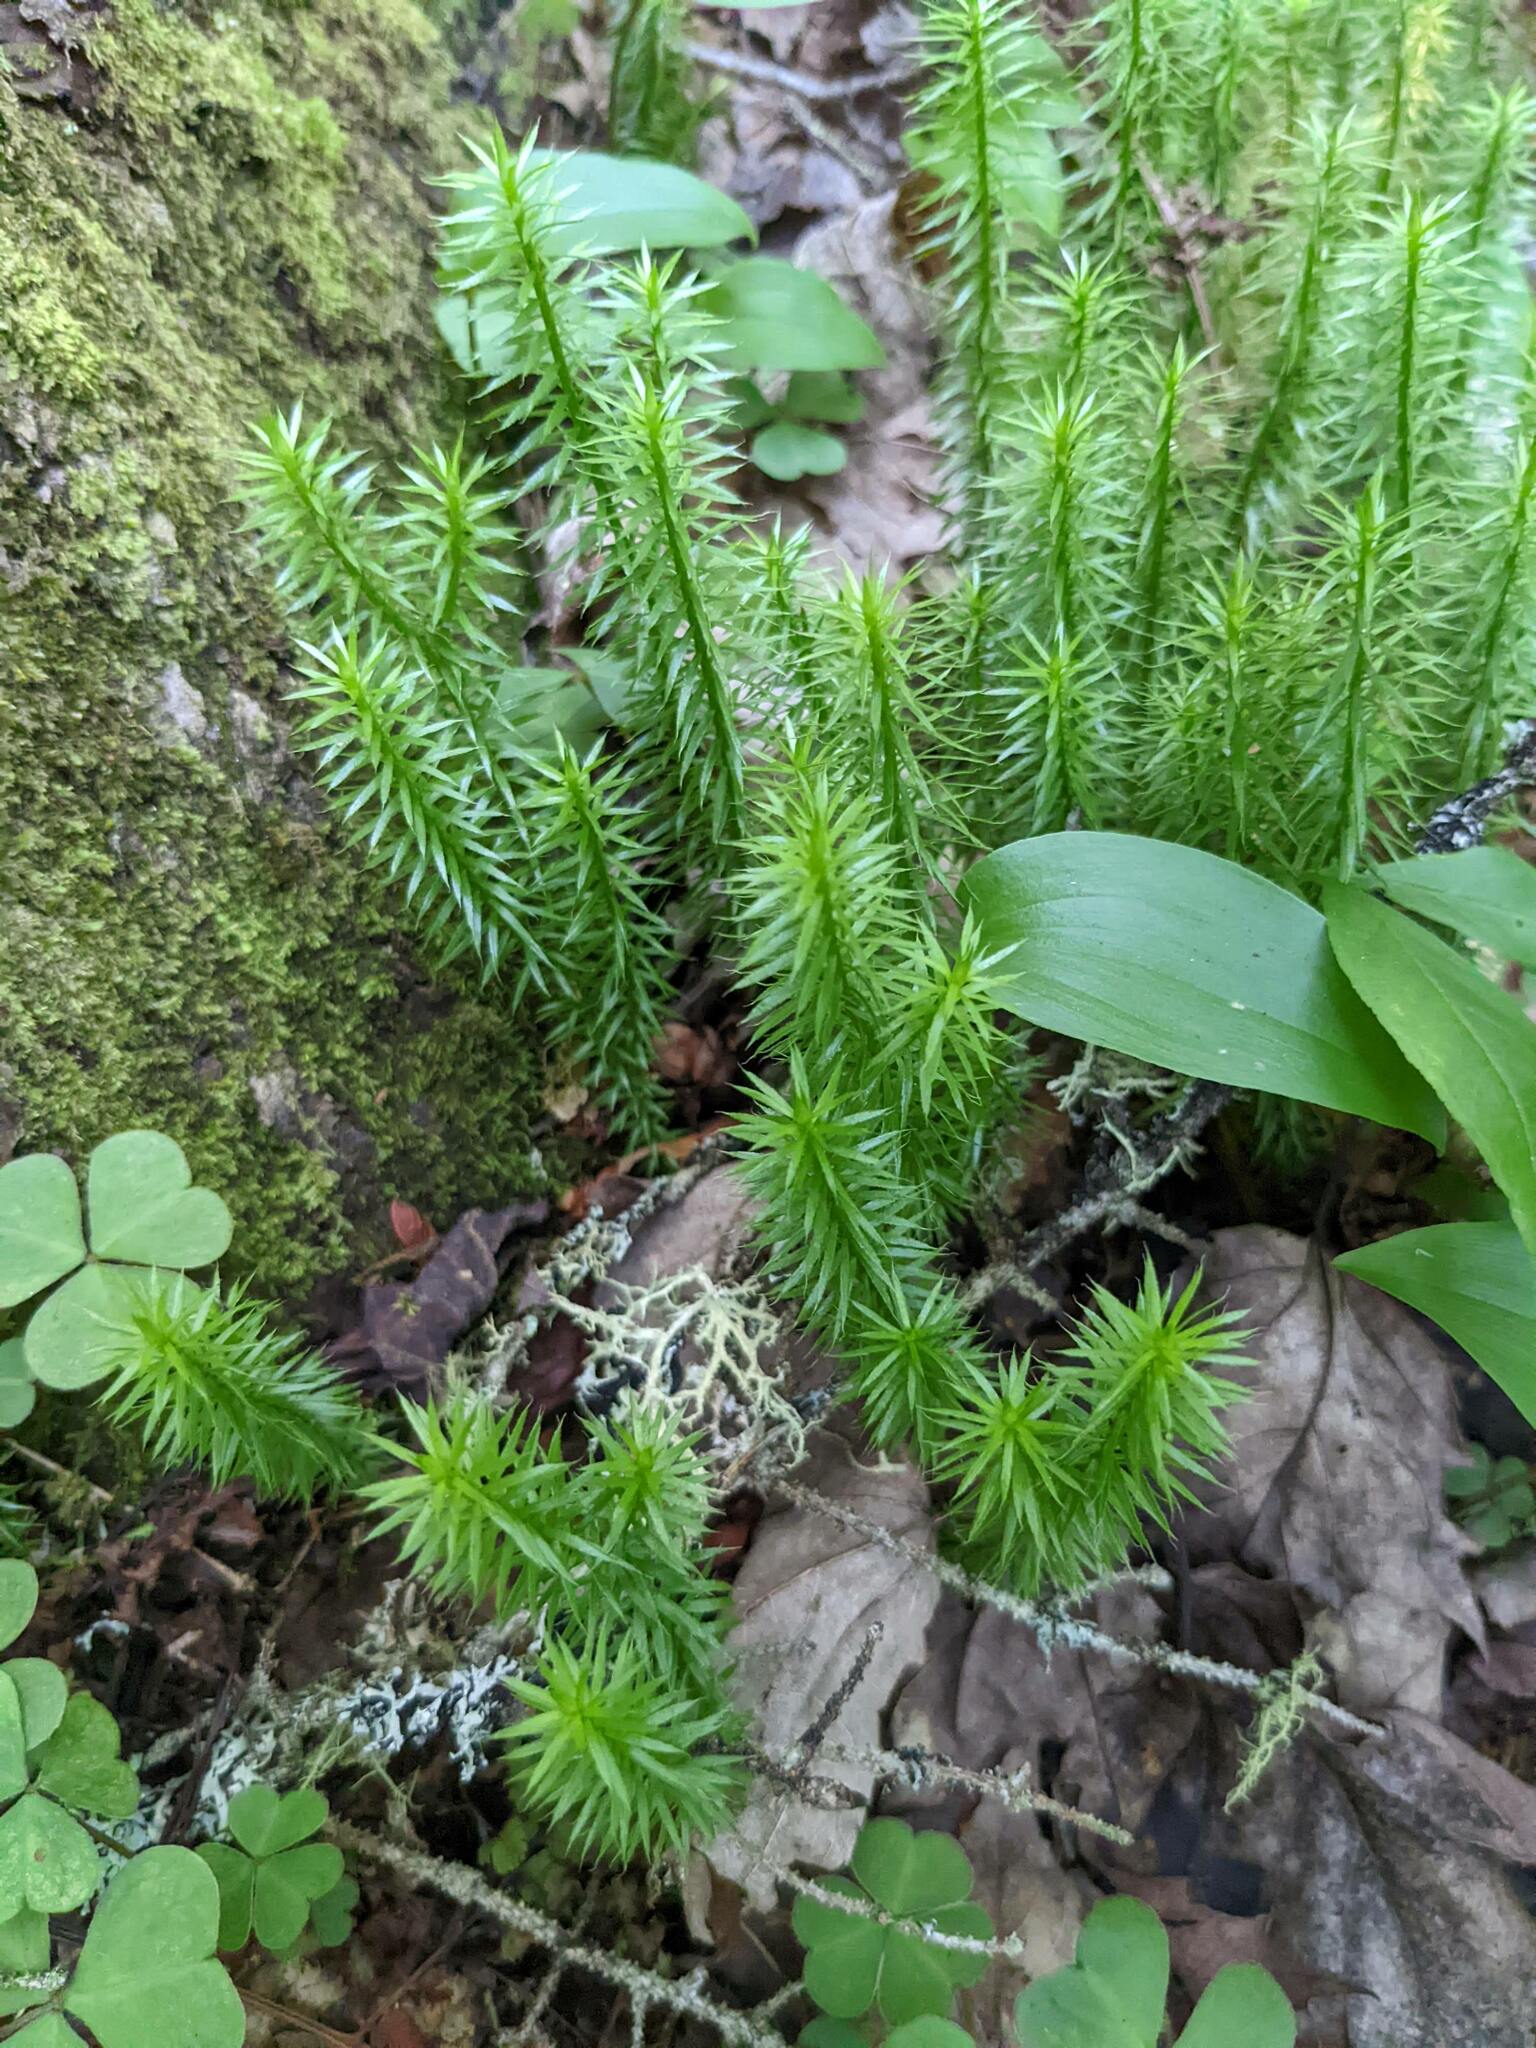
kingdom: Plantae
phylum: Tracheophyta
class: Lycopodiopsida
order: Lycopodiales
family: Lycopodiaceae
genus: Spinulum
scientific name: Spinulum annotinum
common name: Interrupted club-moss
